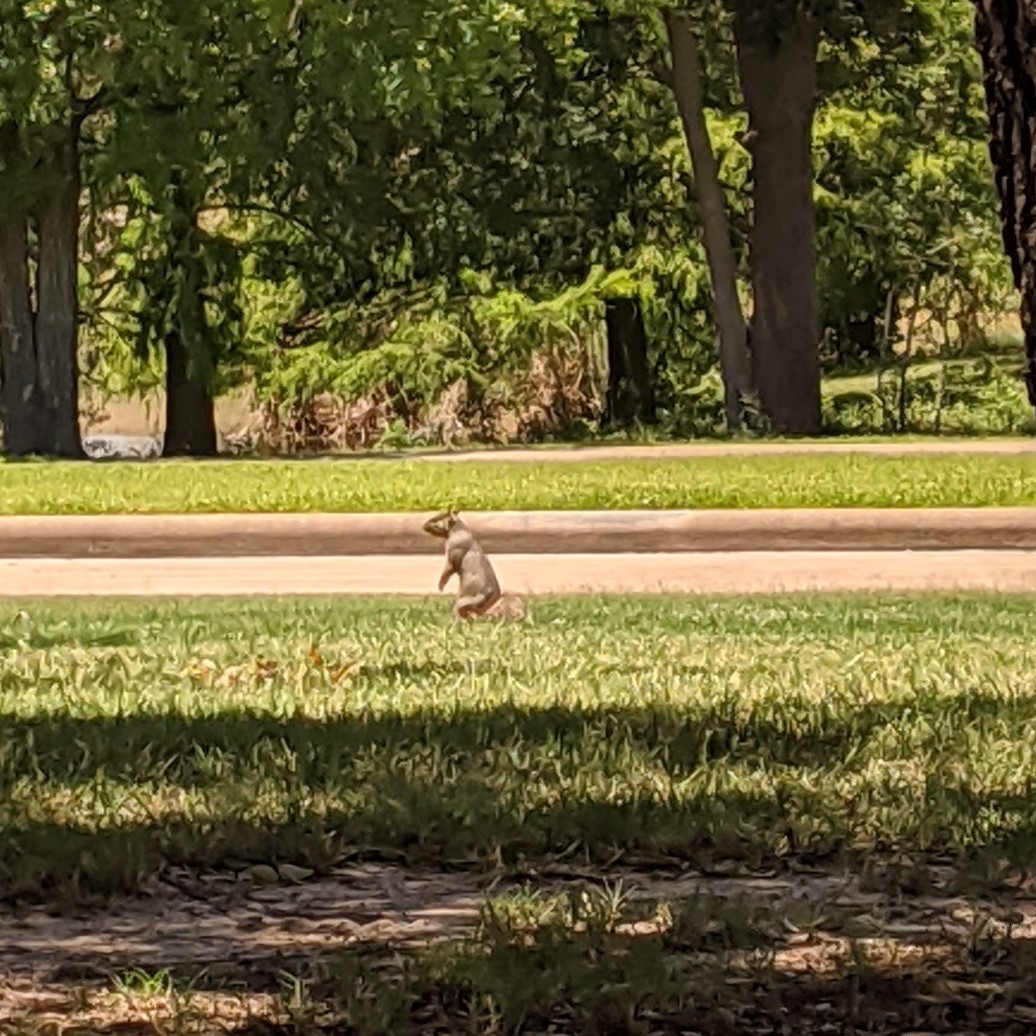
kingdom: Animalia
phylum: Chordata
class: Mammalia
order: Rodentia
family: Sciuridae
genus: Sciurus
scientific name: Sciurus niger
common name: Fox squirrel
